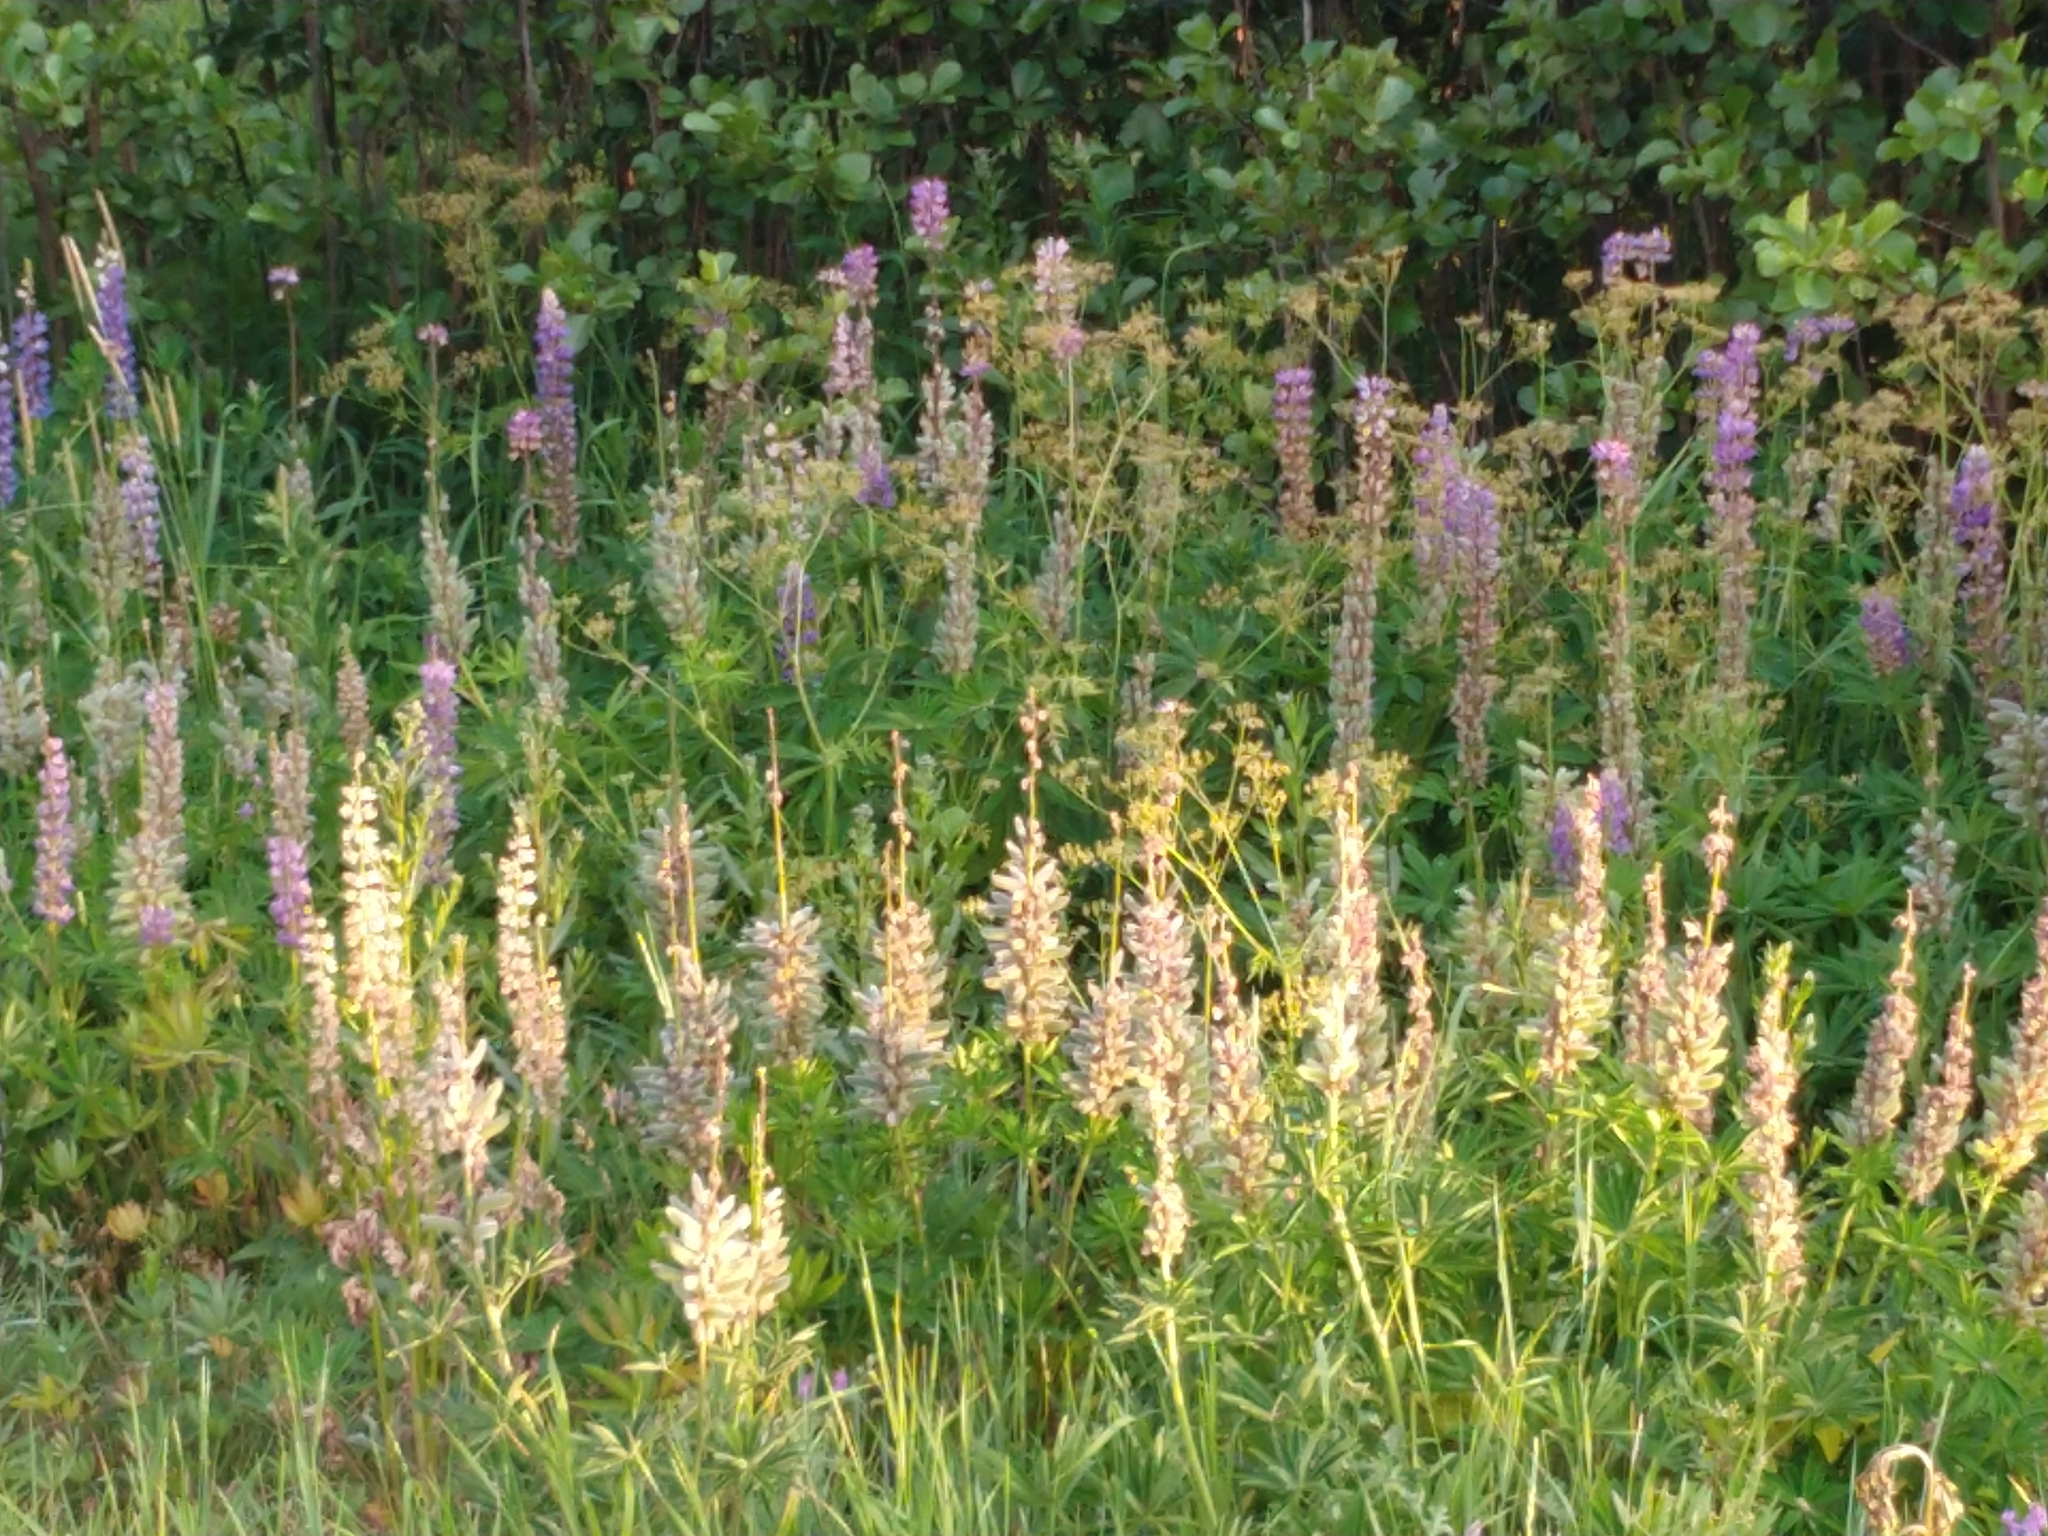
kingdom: Plantae
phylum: Tracheophyta
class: Magnoliopsida
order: Fabales
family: Fabaceae
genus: Lupinus
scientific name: Lupinus polyphyllus
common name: Garden lupin
